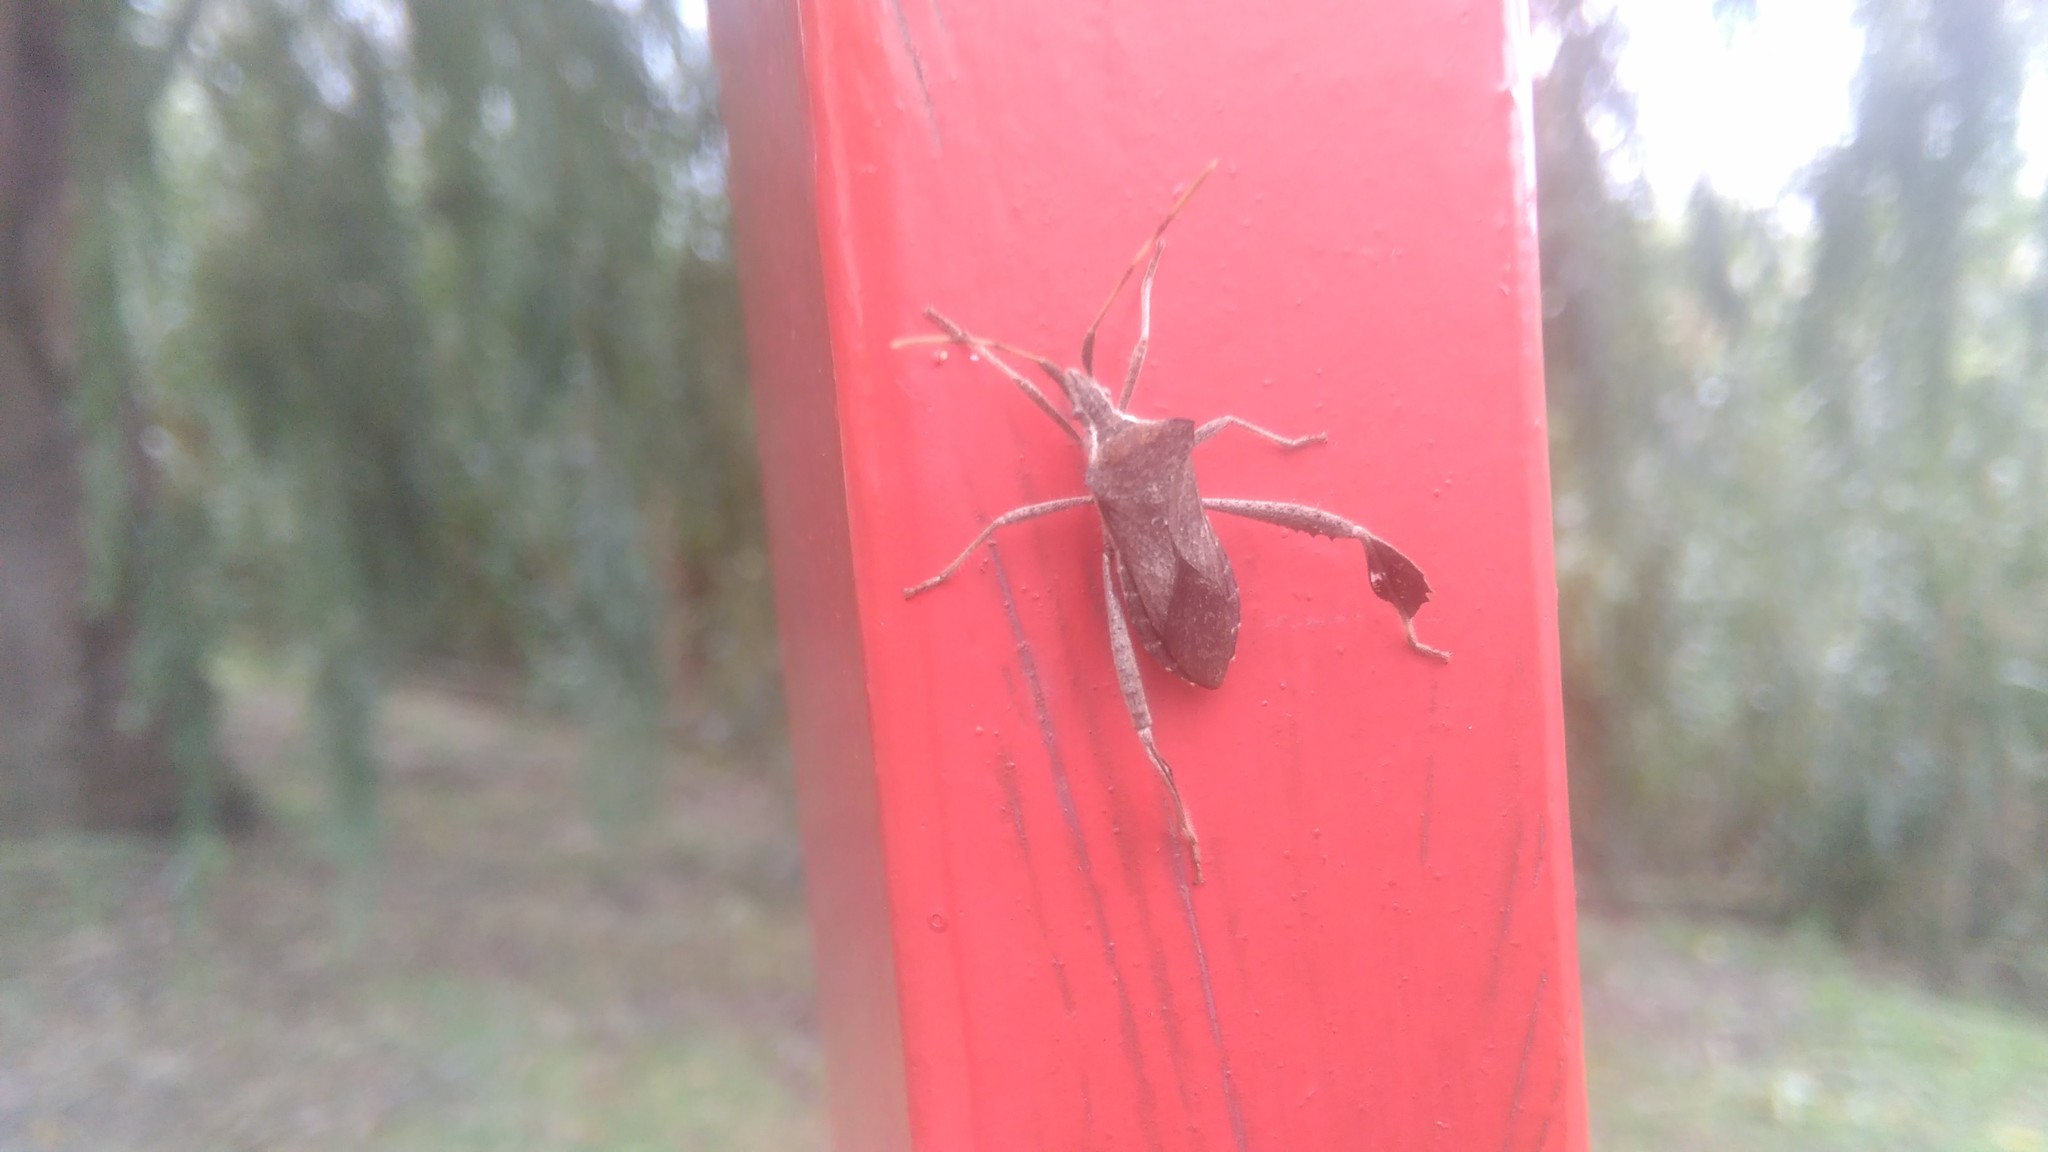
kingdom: Animalia
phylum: Arthropoda
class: Insecta
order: Hemiptera
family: Coreidae
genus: Leptoglossus
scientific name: Leptoglossus concaviusculus
